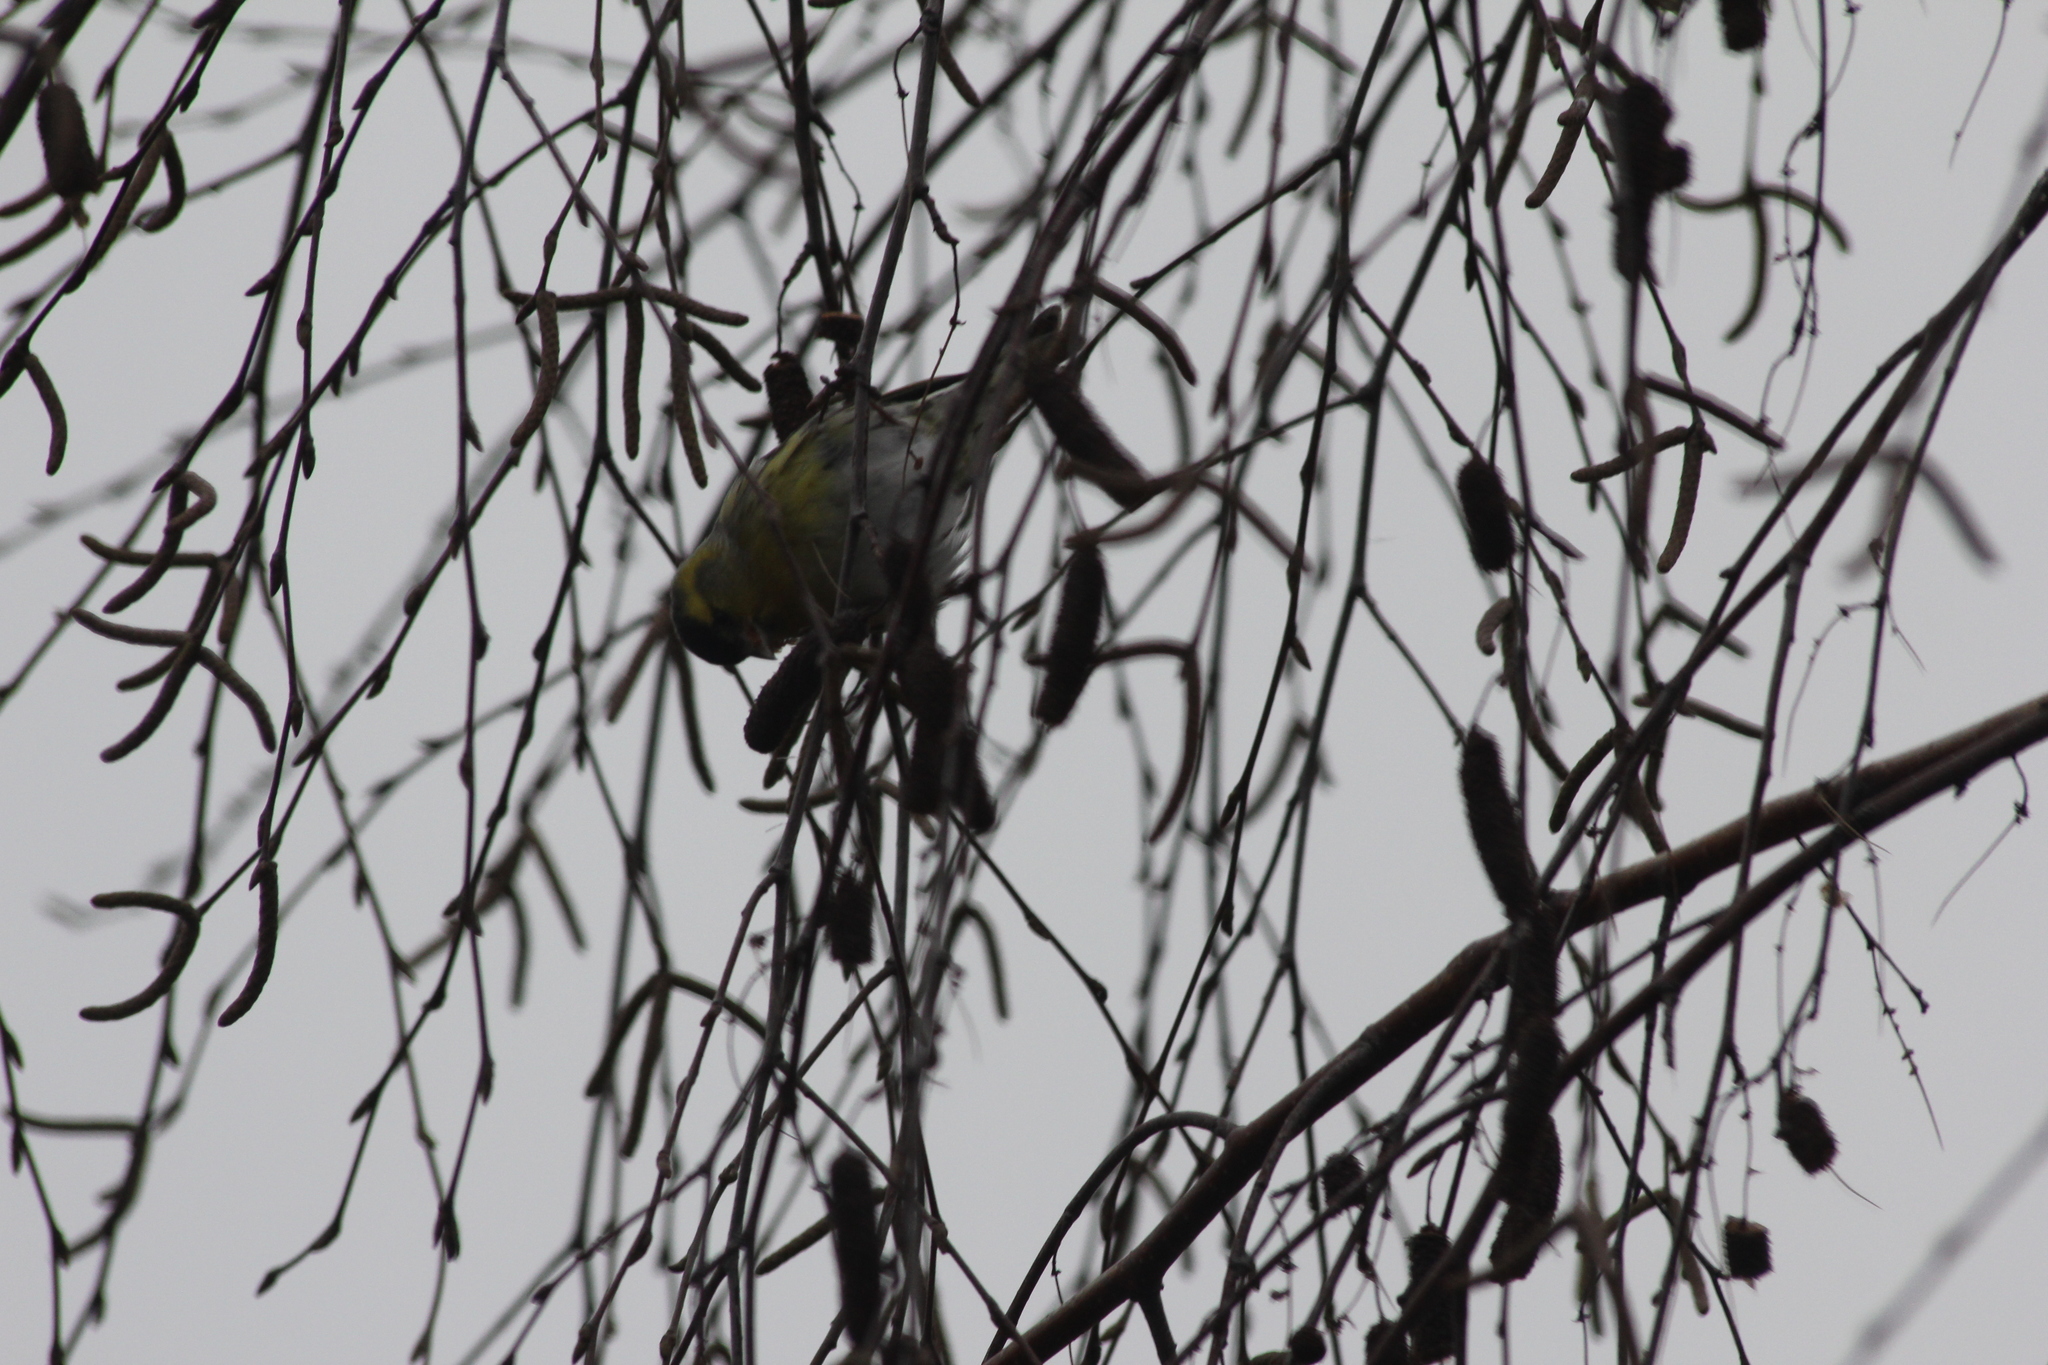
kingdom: Animalia
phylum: Chordata
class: Aves
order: Passeriformes
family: Fringillidae
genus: Spinus
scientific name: Spinus spinus
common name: Eurasian siskin
